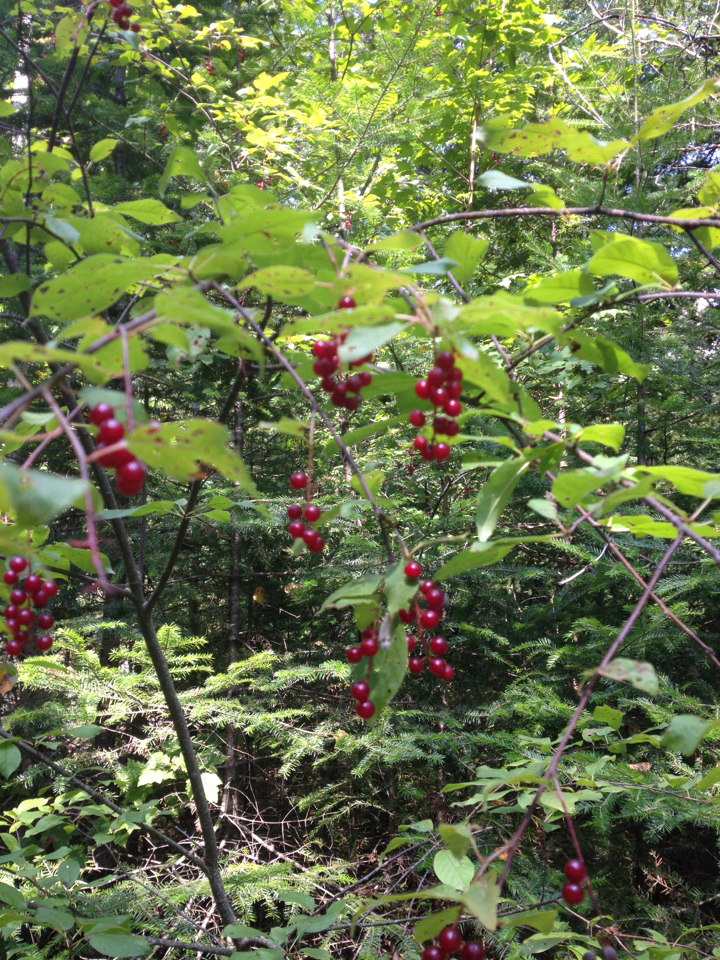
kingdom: Plantae
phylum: Tracheophyta
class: Magnoliopsida
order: Rosales
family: Rosaceae
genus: Prunus
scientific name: Prunus virginiana
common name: Chokecherry
